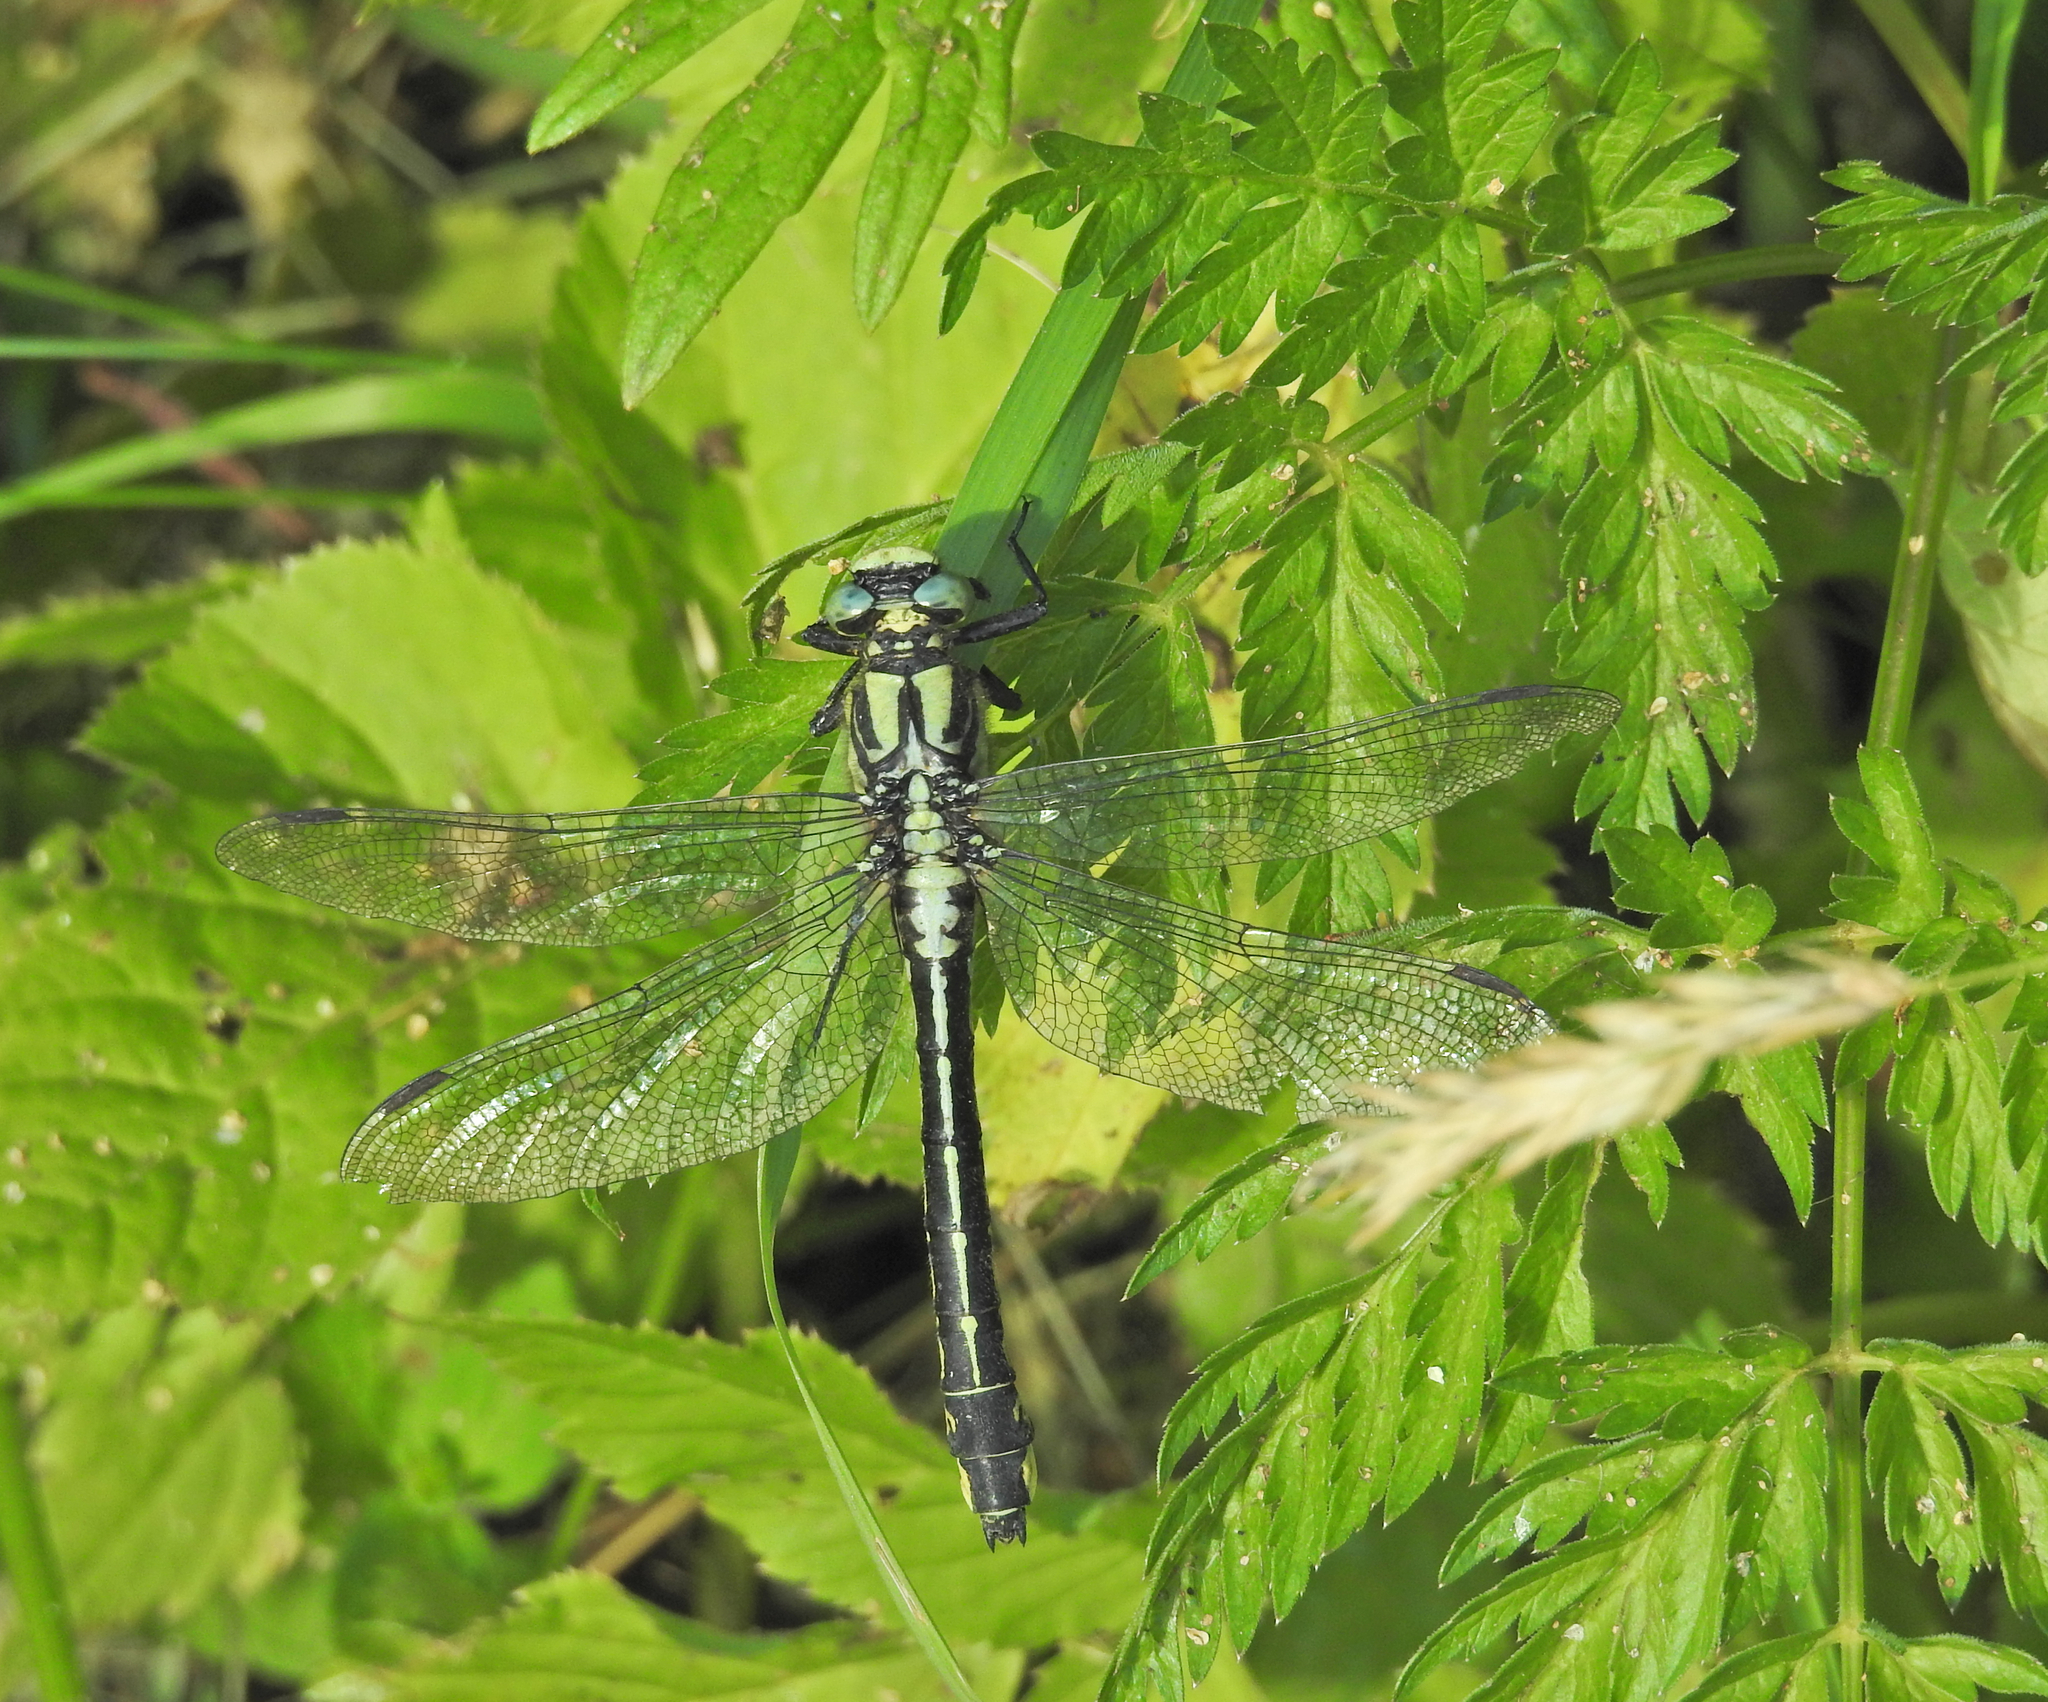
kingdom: Animalia
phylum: Arthropoda
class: Insecta
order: Odonata
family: Gomphidae
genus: Gomphus
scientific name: Gomphus vulgatissimus
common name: Club-tailed dragonfly
